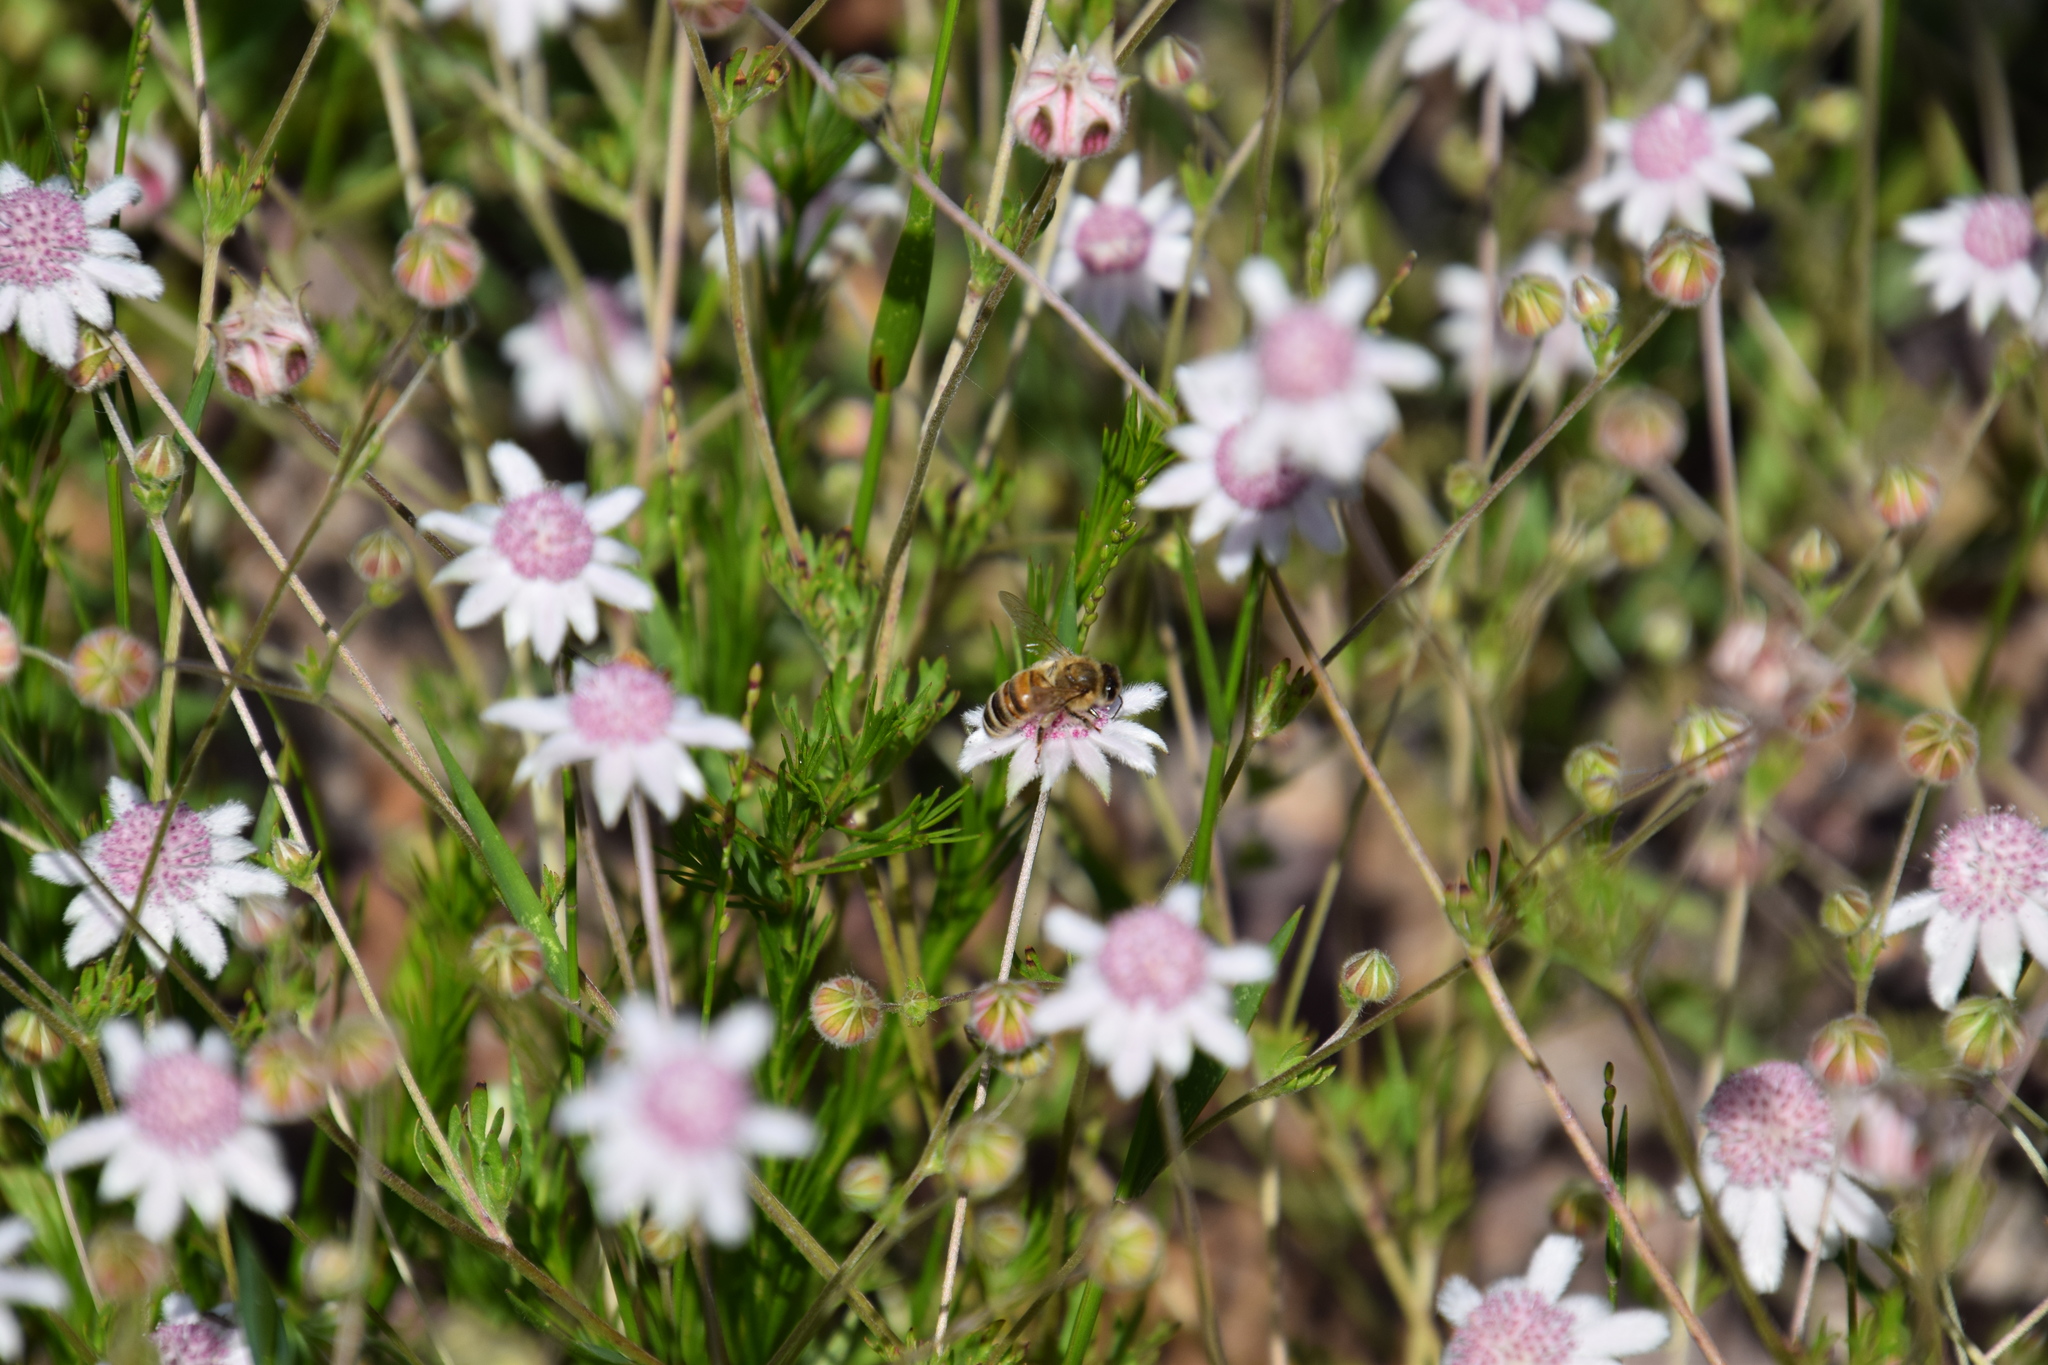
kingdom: Animalia
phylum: Arthropoda
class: Insecta
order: Hymenoptera
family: Apidae
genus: Apis
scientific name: Apis mellifera
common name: Honey bee
